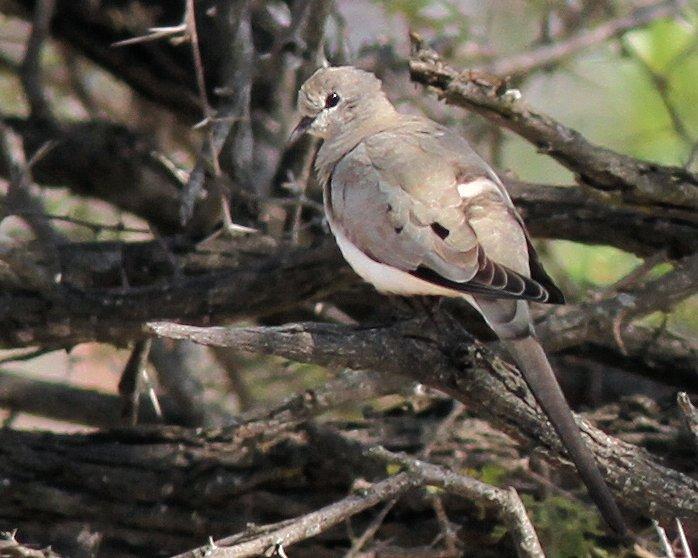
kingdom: Animalia
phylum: Chordata
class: Aves
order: Columbiformes
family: Columbidae
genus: Oena
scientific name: Oena capensis
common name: Namaqua dove
